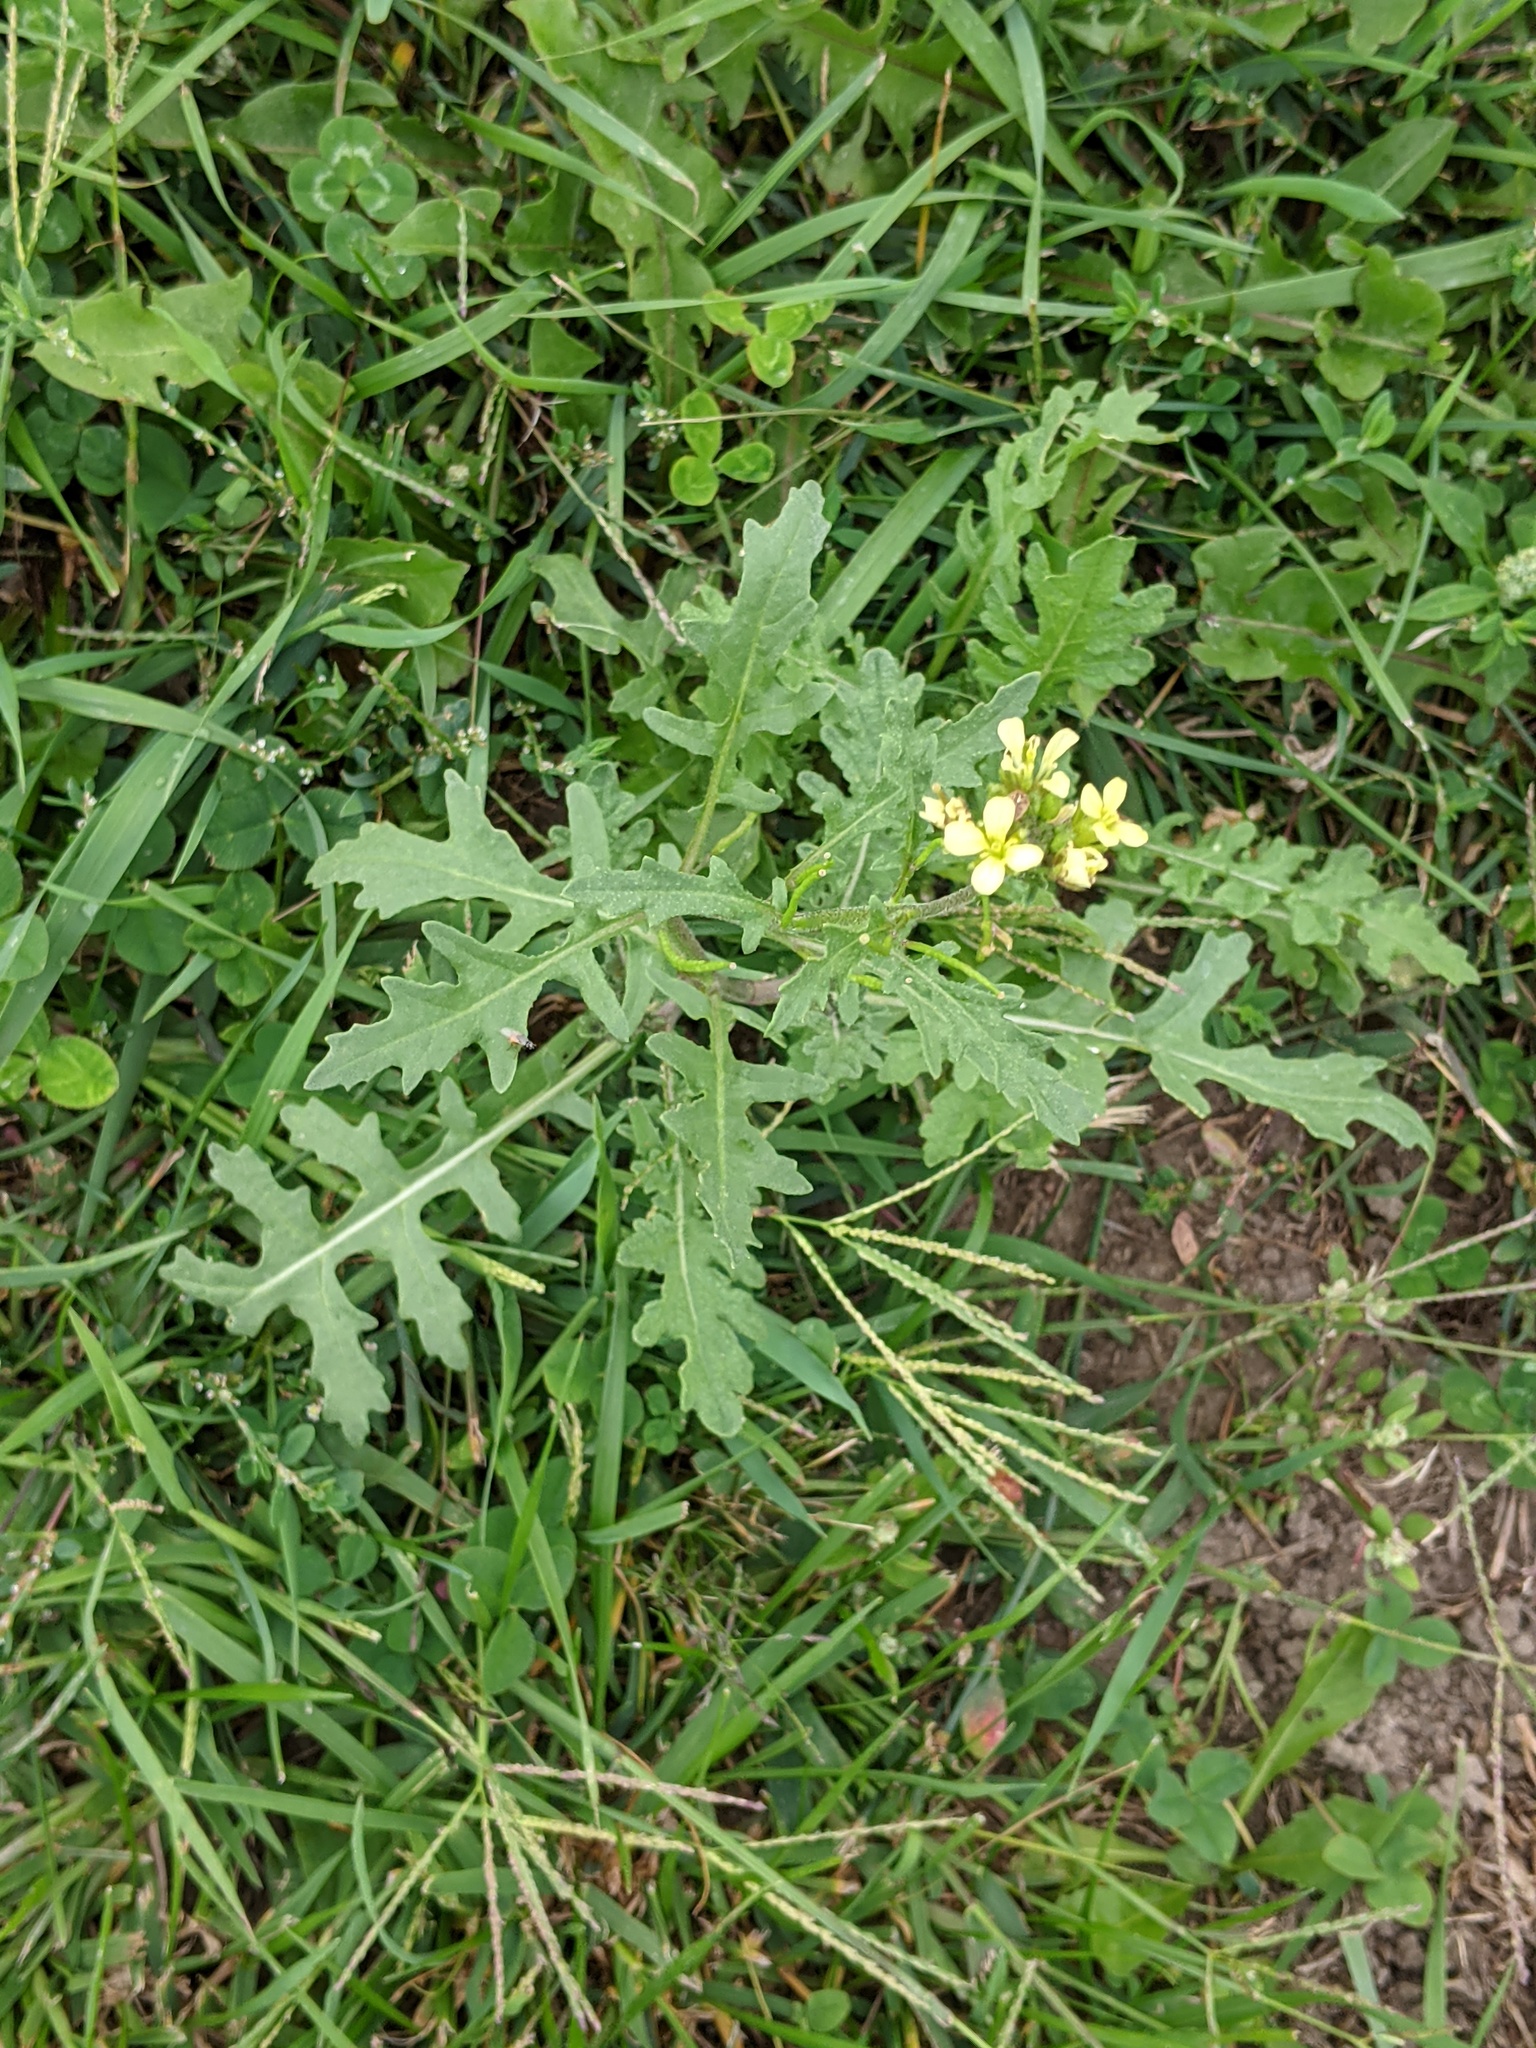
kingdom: Plantae
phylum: Tracheophyta
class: Magnoliopsida
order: Brassicales
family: Brassicaceae
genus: Erucastrum
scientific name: Erucastrum gallicum
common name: Hairy rocket
